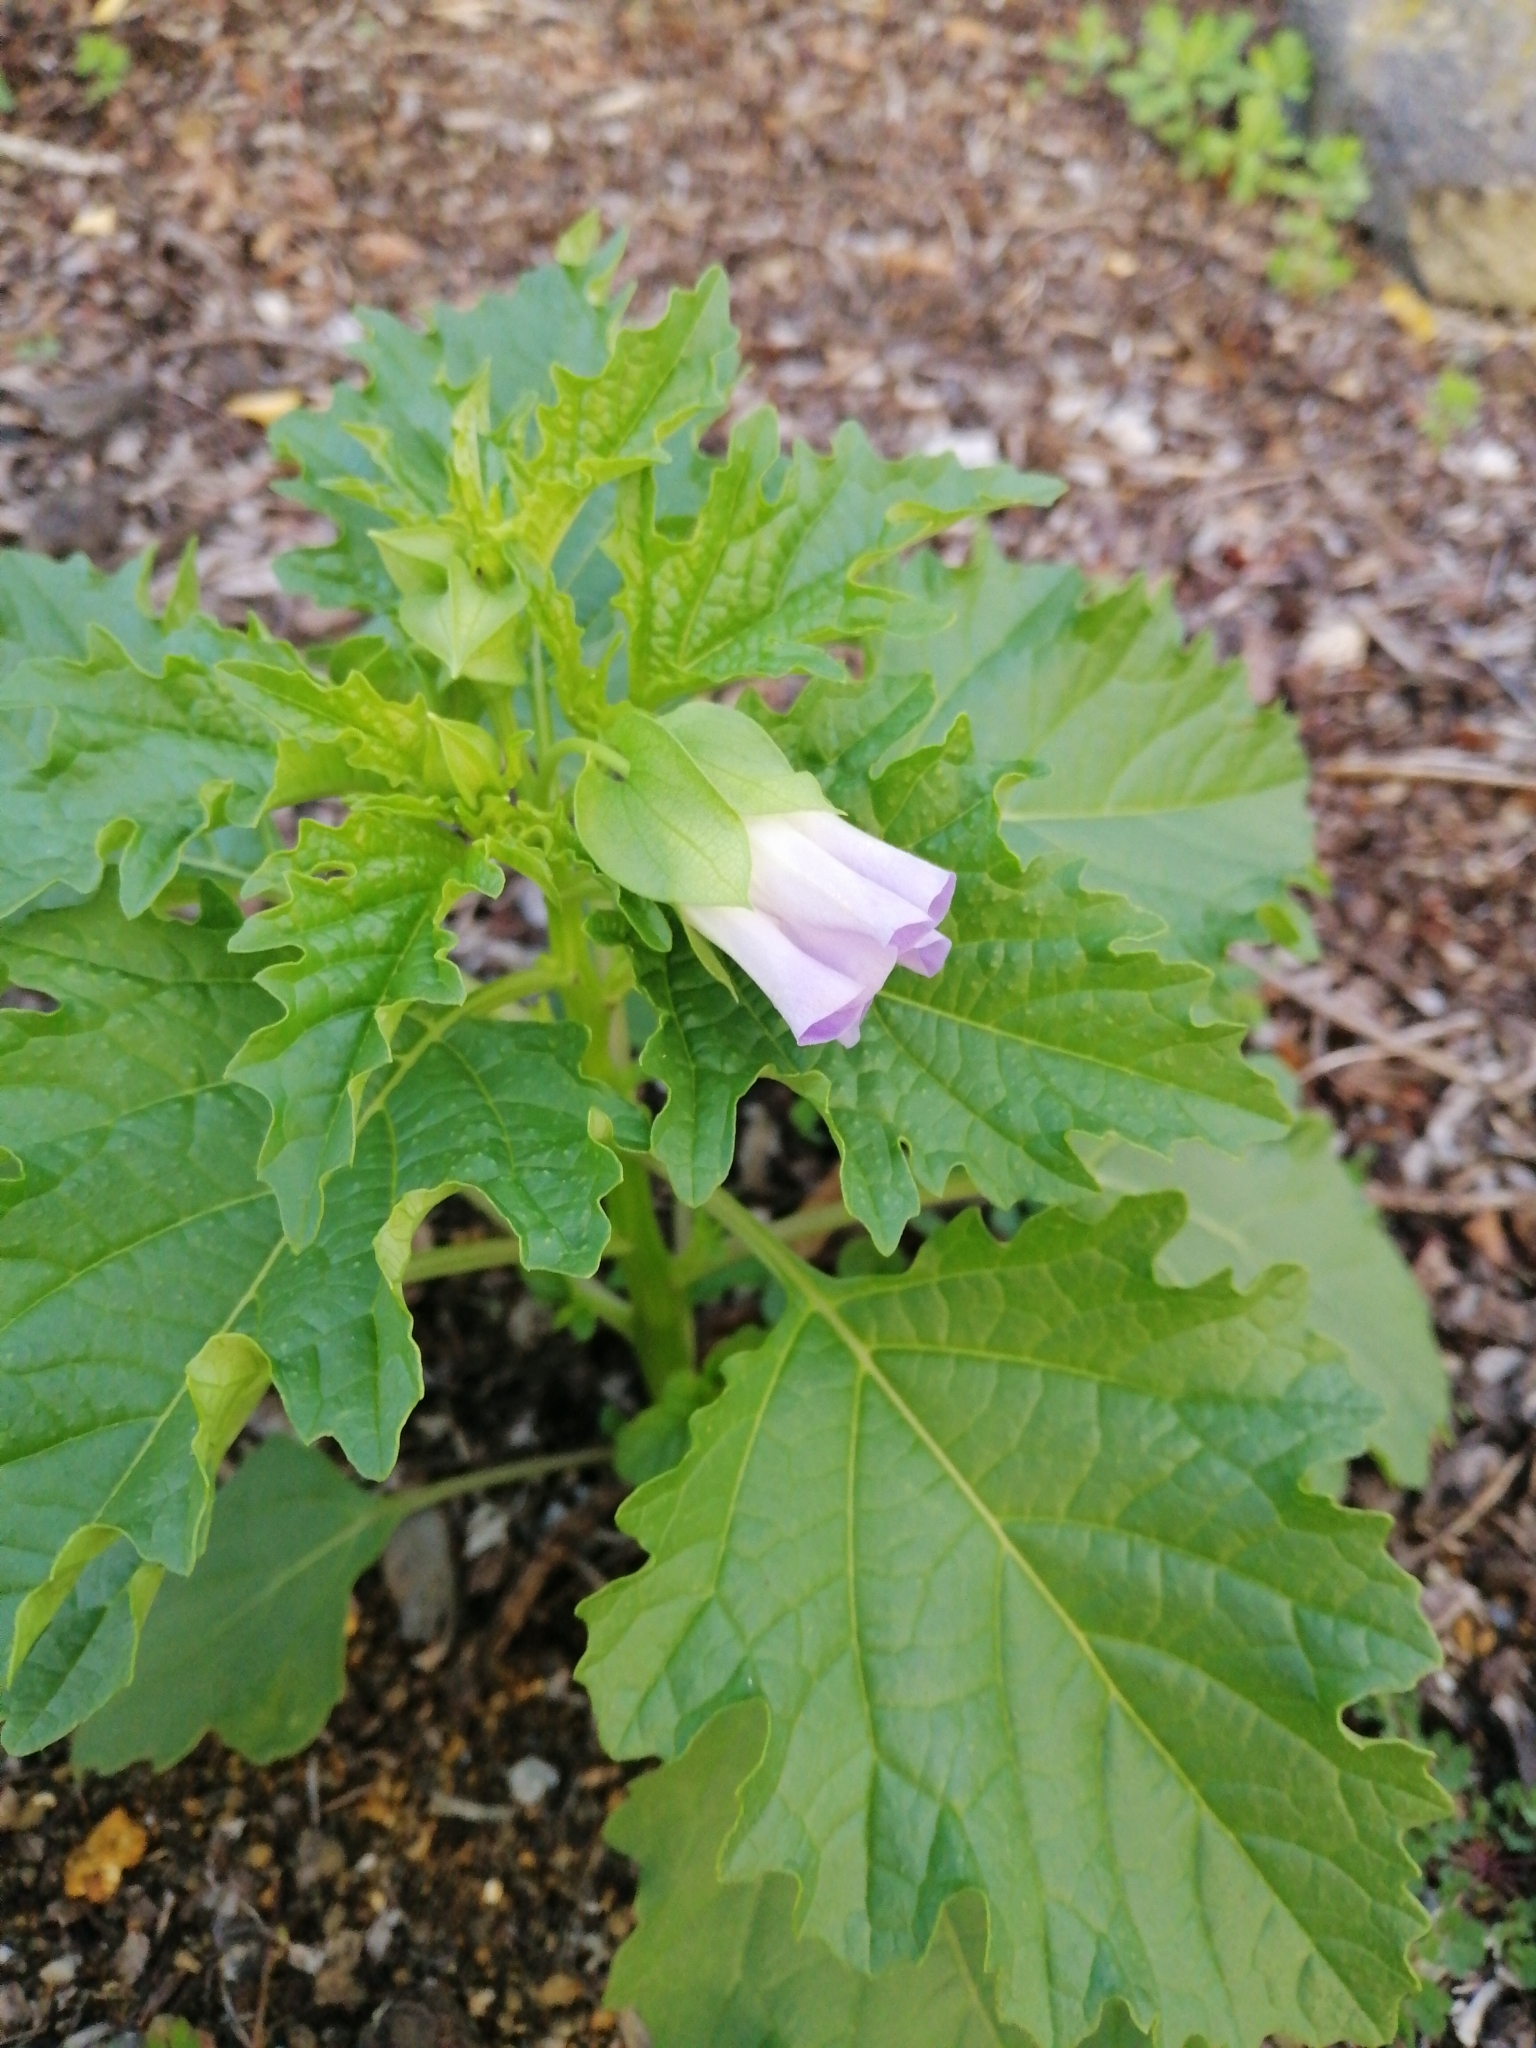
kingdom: Plantae
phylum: Tracheophyta
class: Magnoliopsida
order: Solanales
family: Solanaceae
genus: Nicandra
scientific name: Nicandra physalodes
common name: Apple-of-peru
